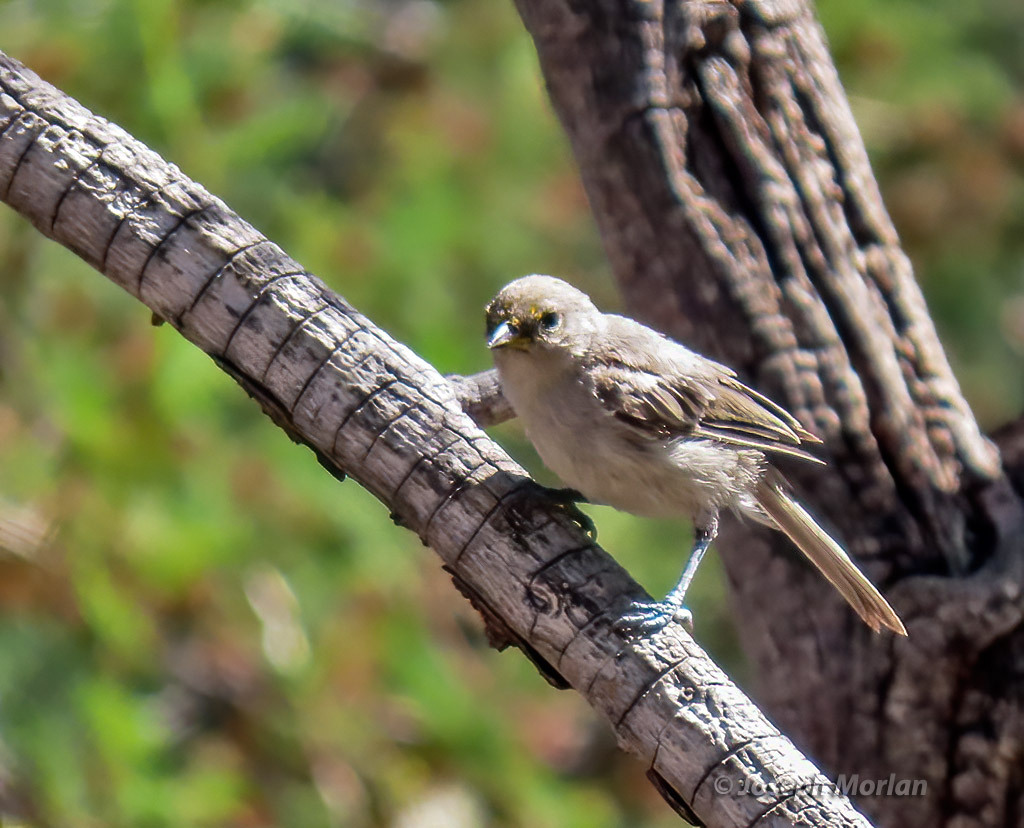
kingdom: Animalia
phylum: Chordata
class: Aves
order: Passeriformes
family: Remizidae
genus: Auriparus
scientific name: Auriparus flaviceps
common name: Verdin
